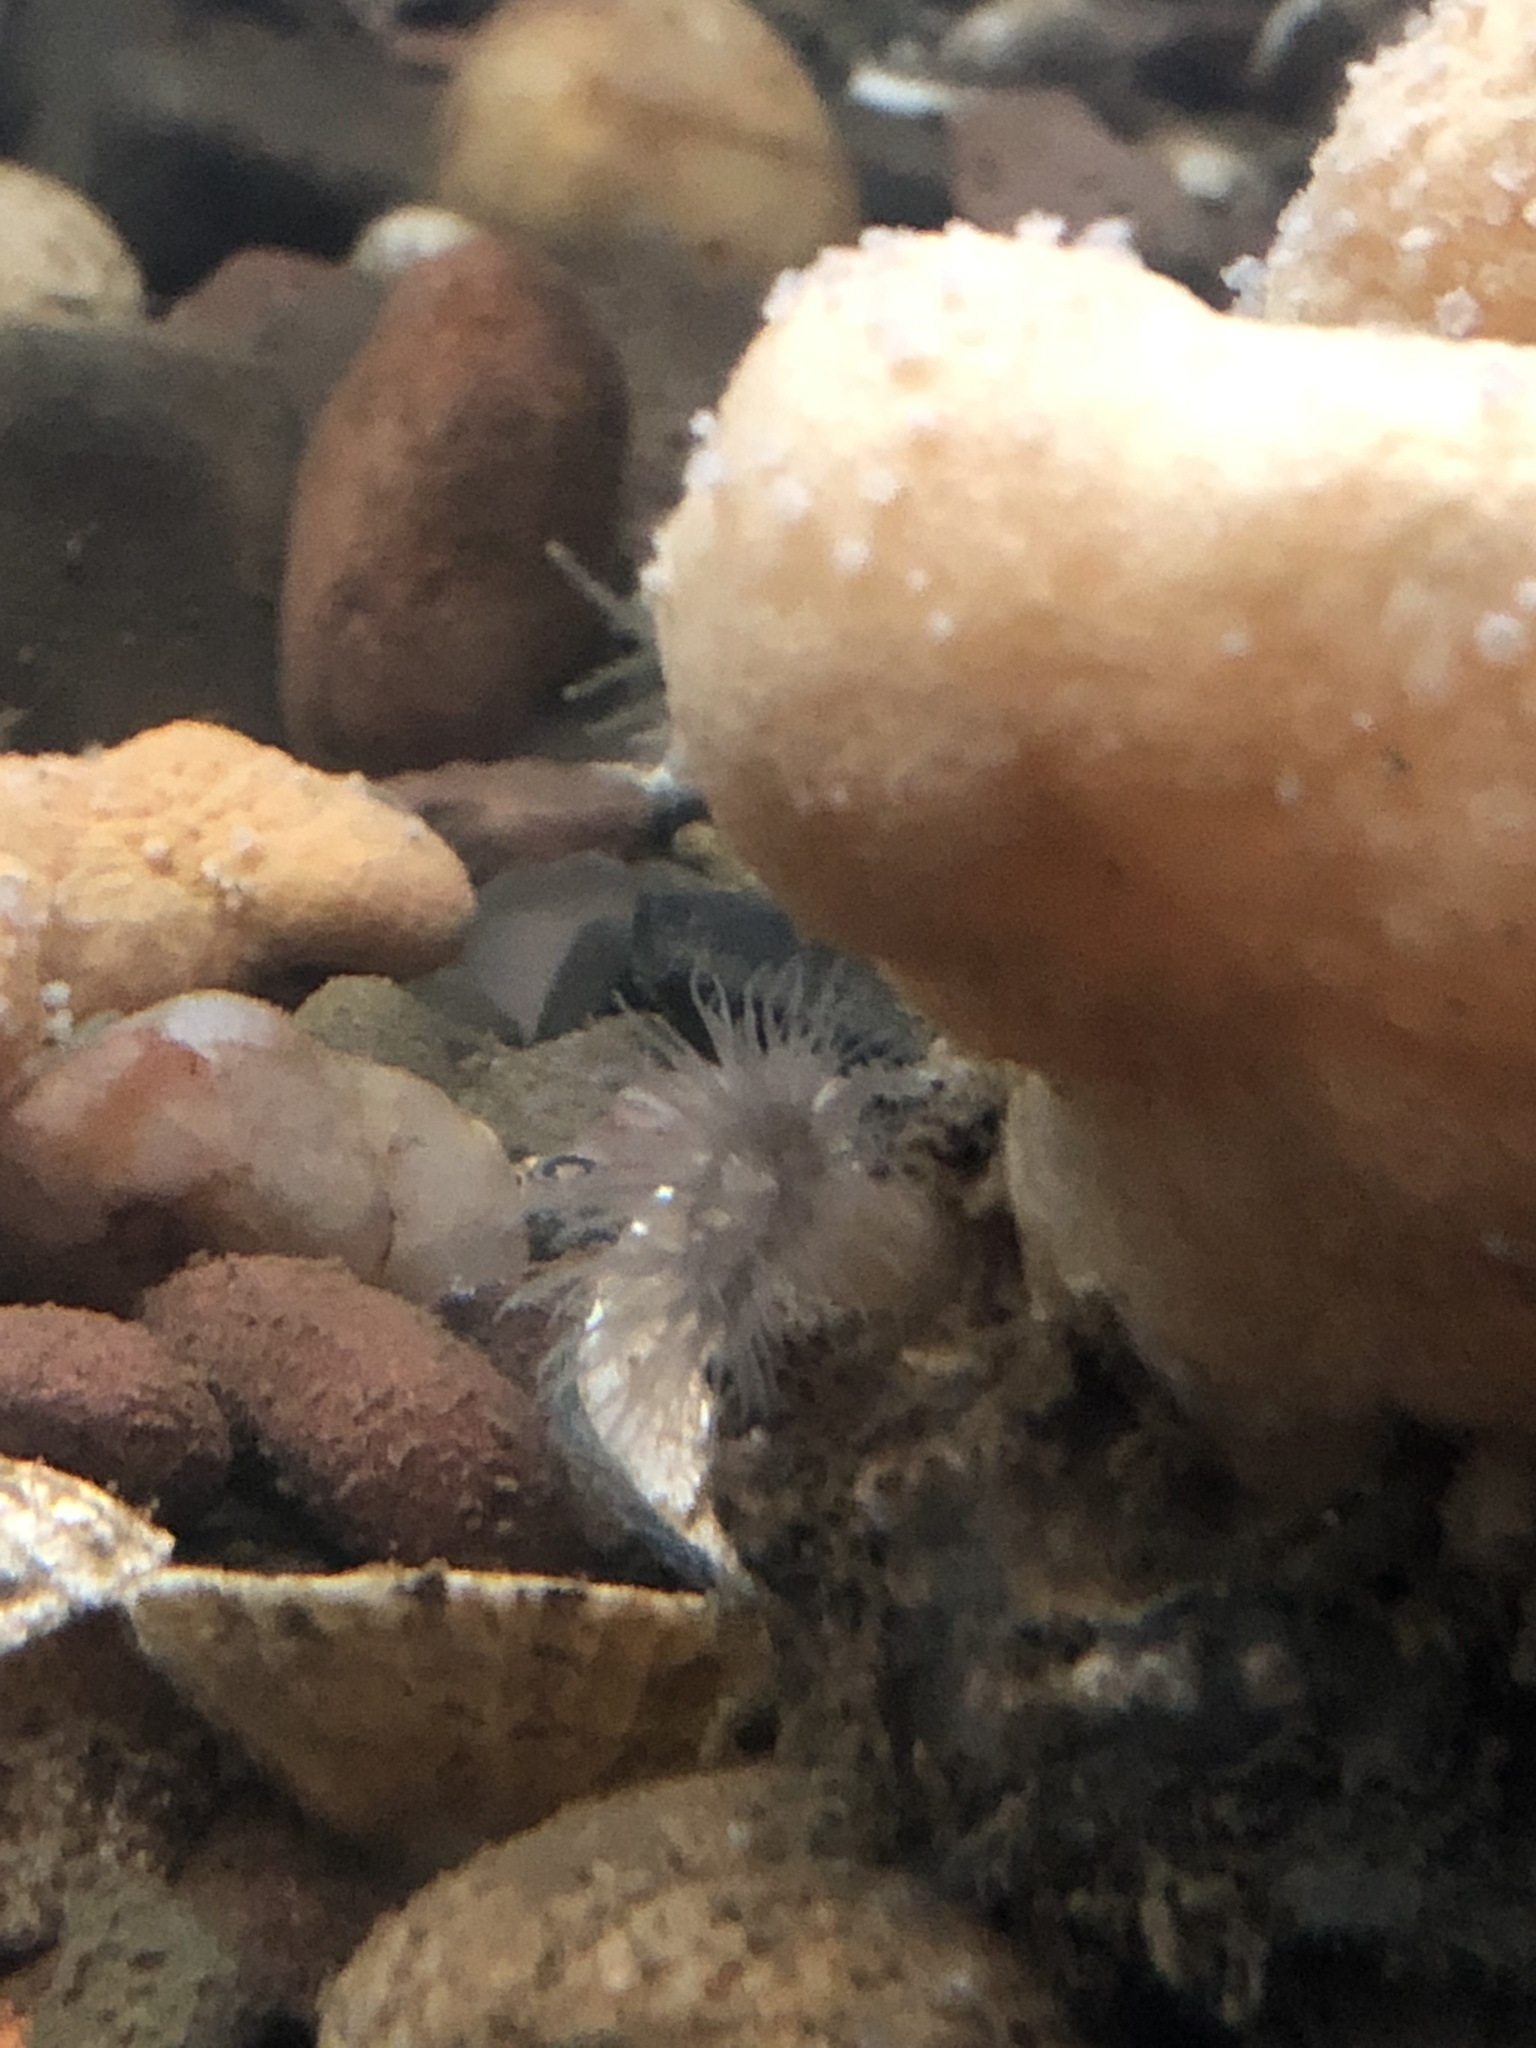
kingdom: Animalia
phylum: Cnidaria
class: Anthozoa
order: Actiniaria
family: Metridiidae
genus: Metridium
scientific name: Metridium senile
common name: Clonal plumose anemone
